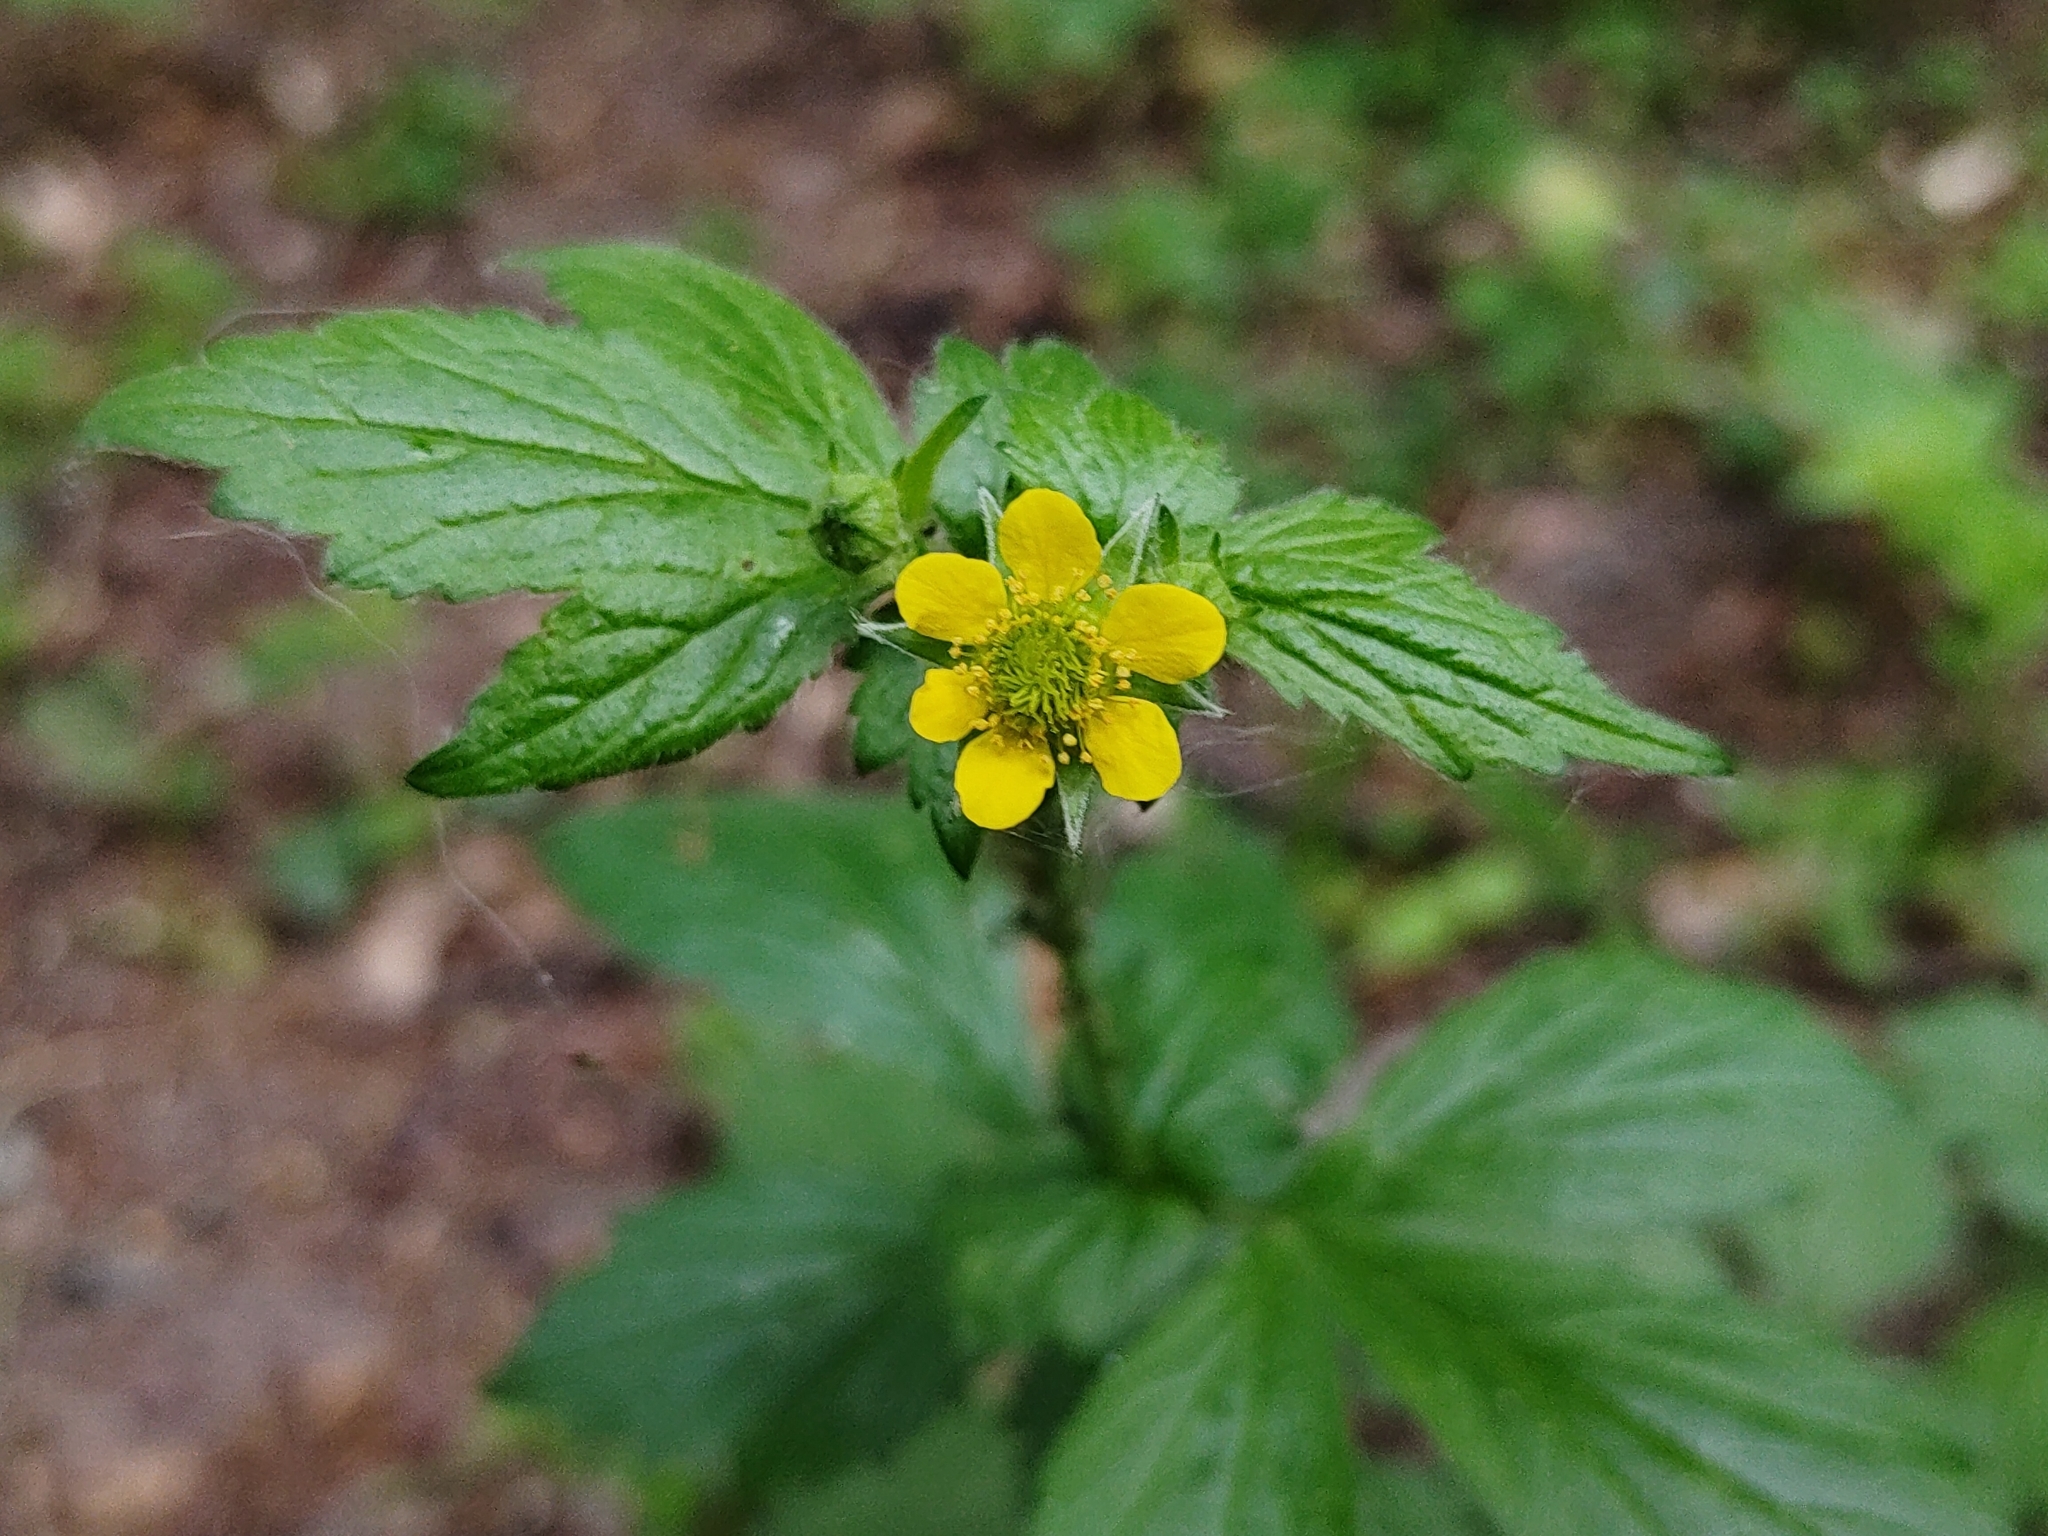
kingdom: Plantae
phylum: Tracheophyta
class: Magnoliopsida
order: Rosales
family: Rosaceae
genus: Geum
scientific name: Geum urbanum
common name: Wood avens
